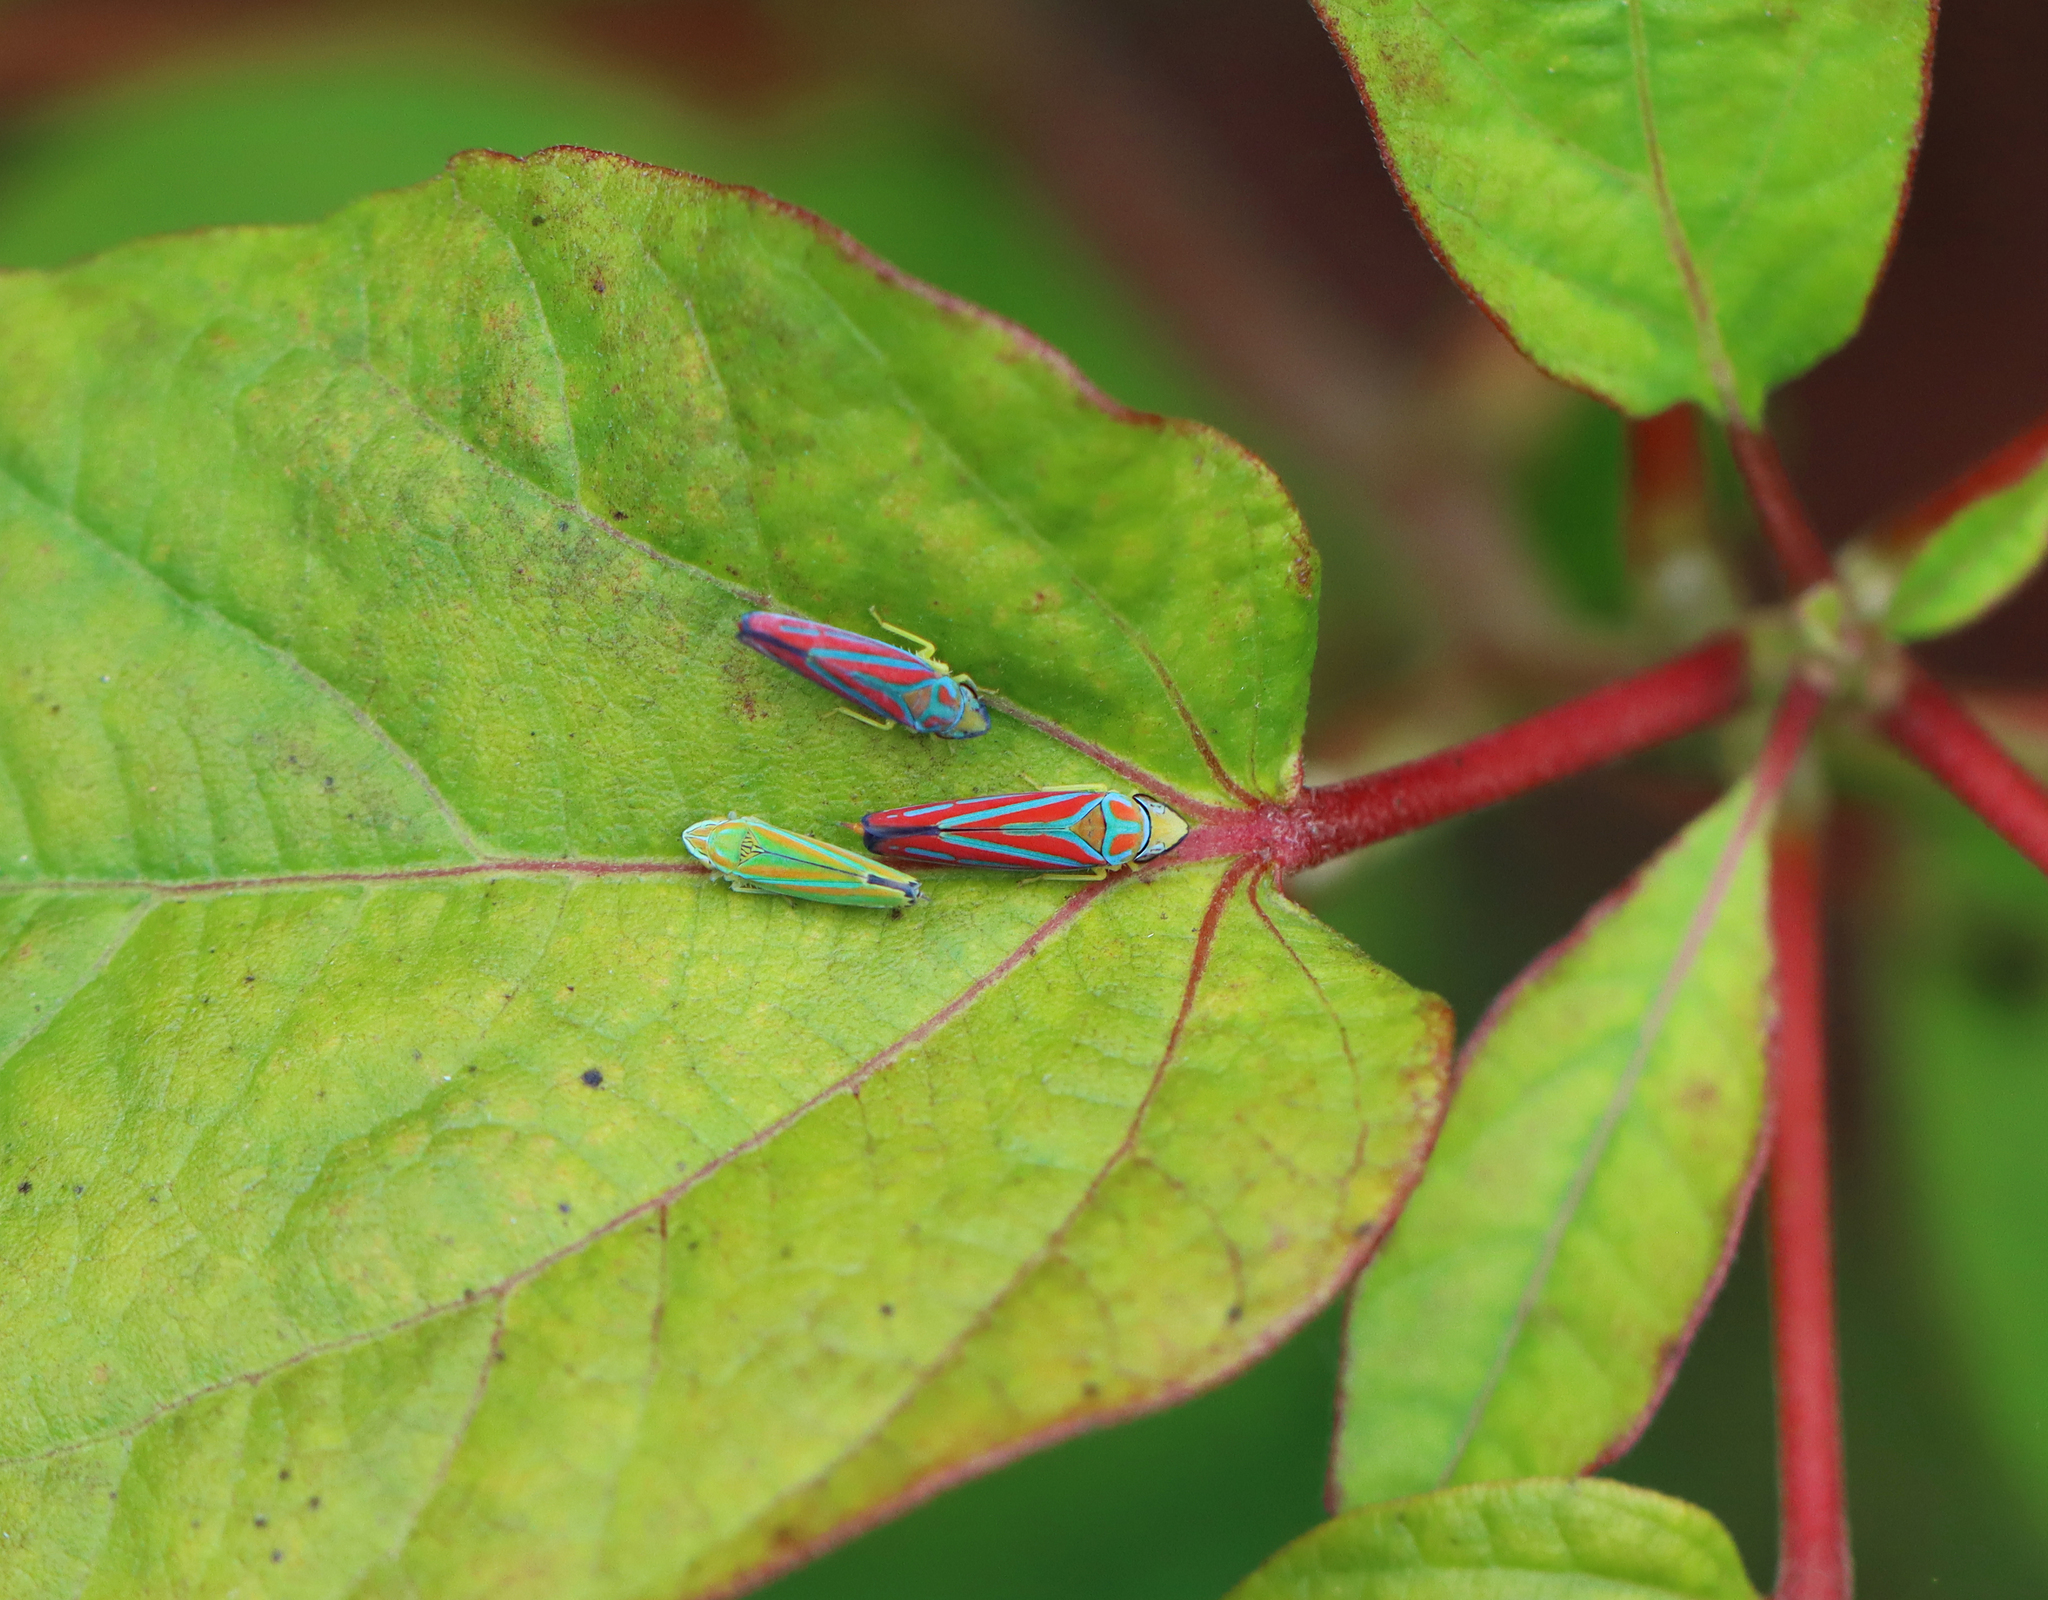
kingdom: Animalia
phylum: Arthropoda
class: Insecta
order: Hemiptera
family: Cicadellidae
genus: Graphocephala
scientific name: Graphocephala coccinea
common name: Candy-striped leafhopper
